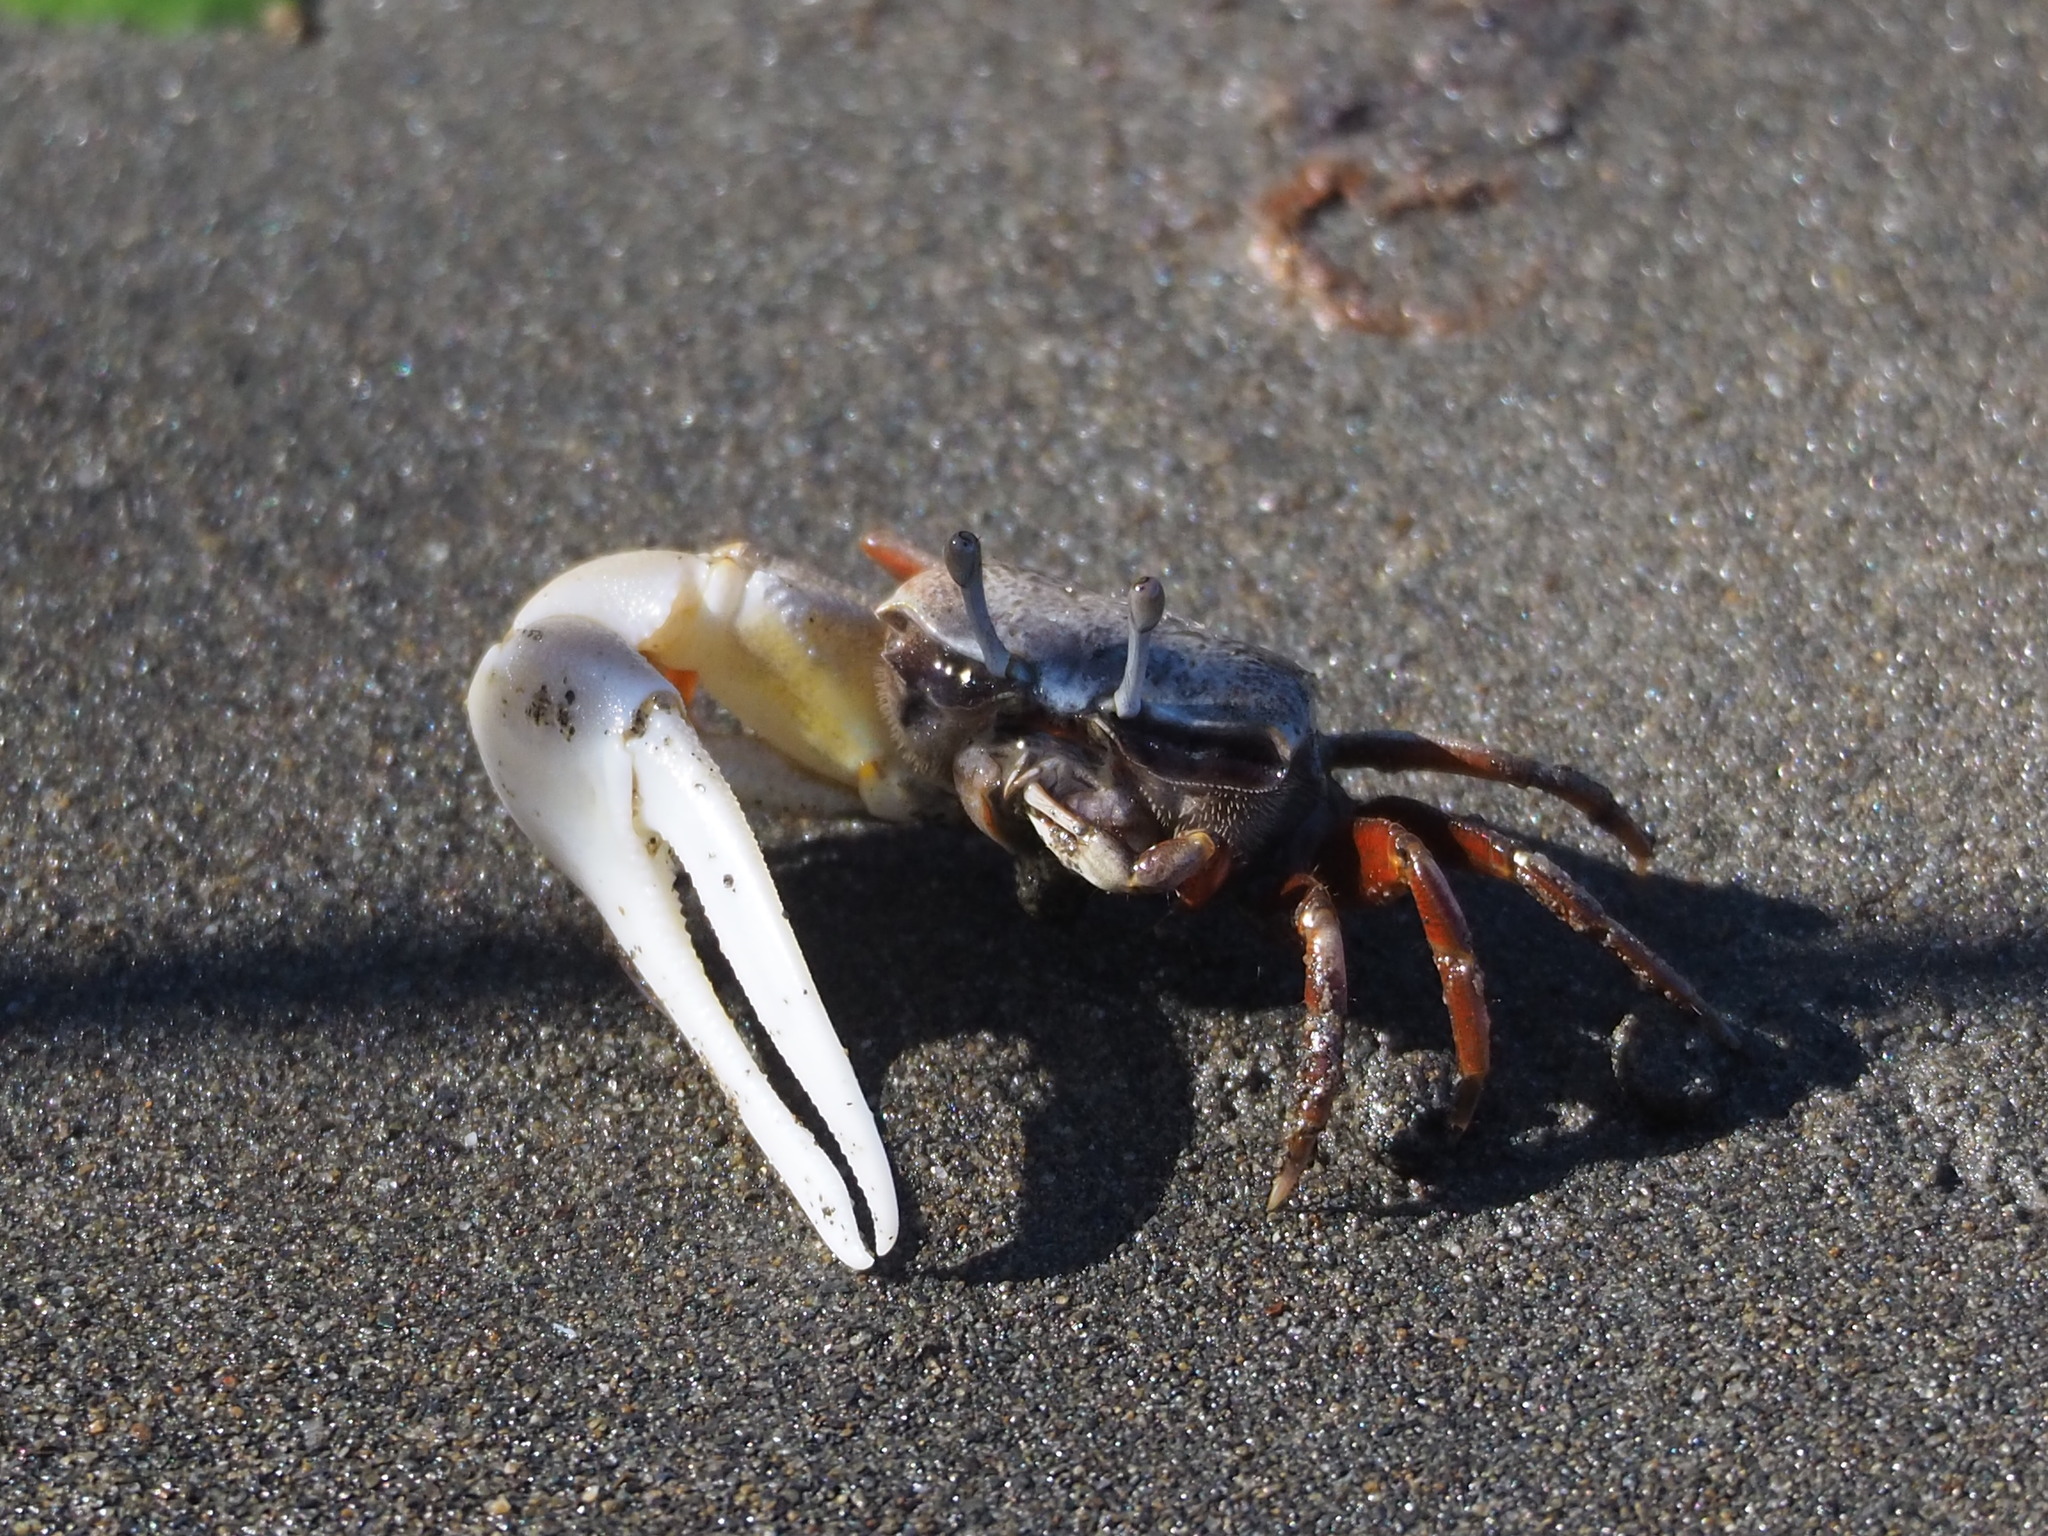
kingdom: Animalia
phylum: Arthropoda
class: Malacostraca
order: Decapoda
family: Ocypodidae
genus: Austruca
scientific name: Austruca lactea
